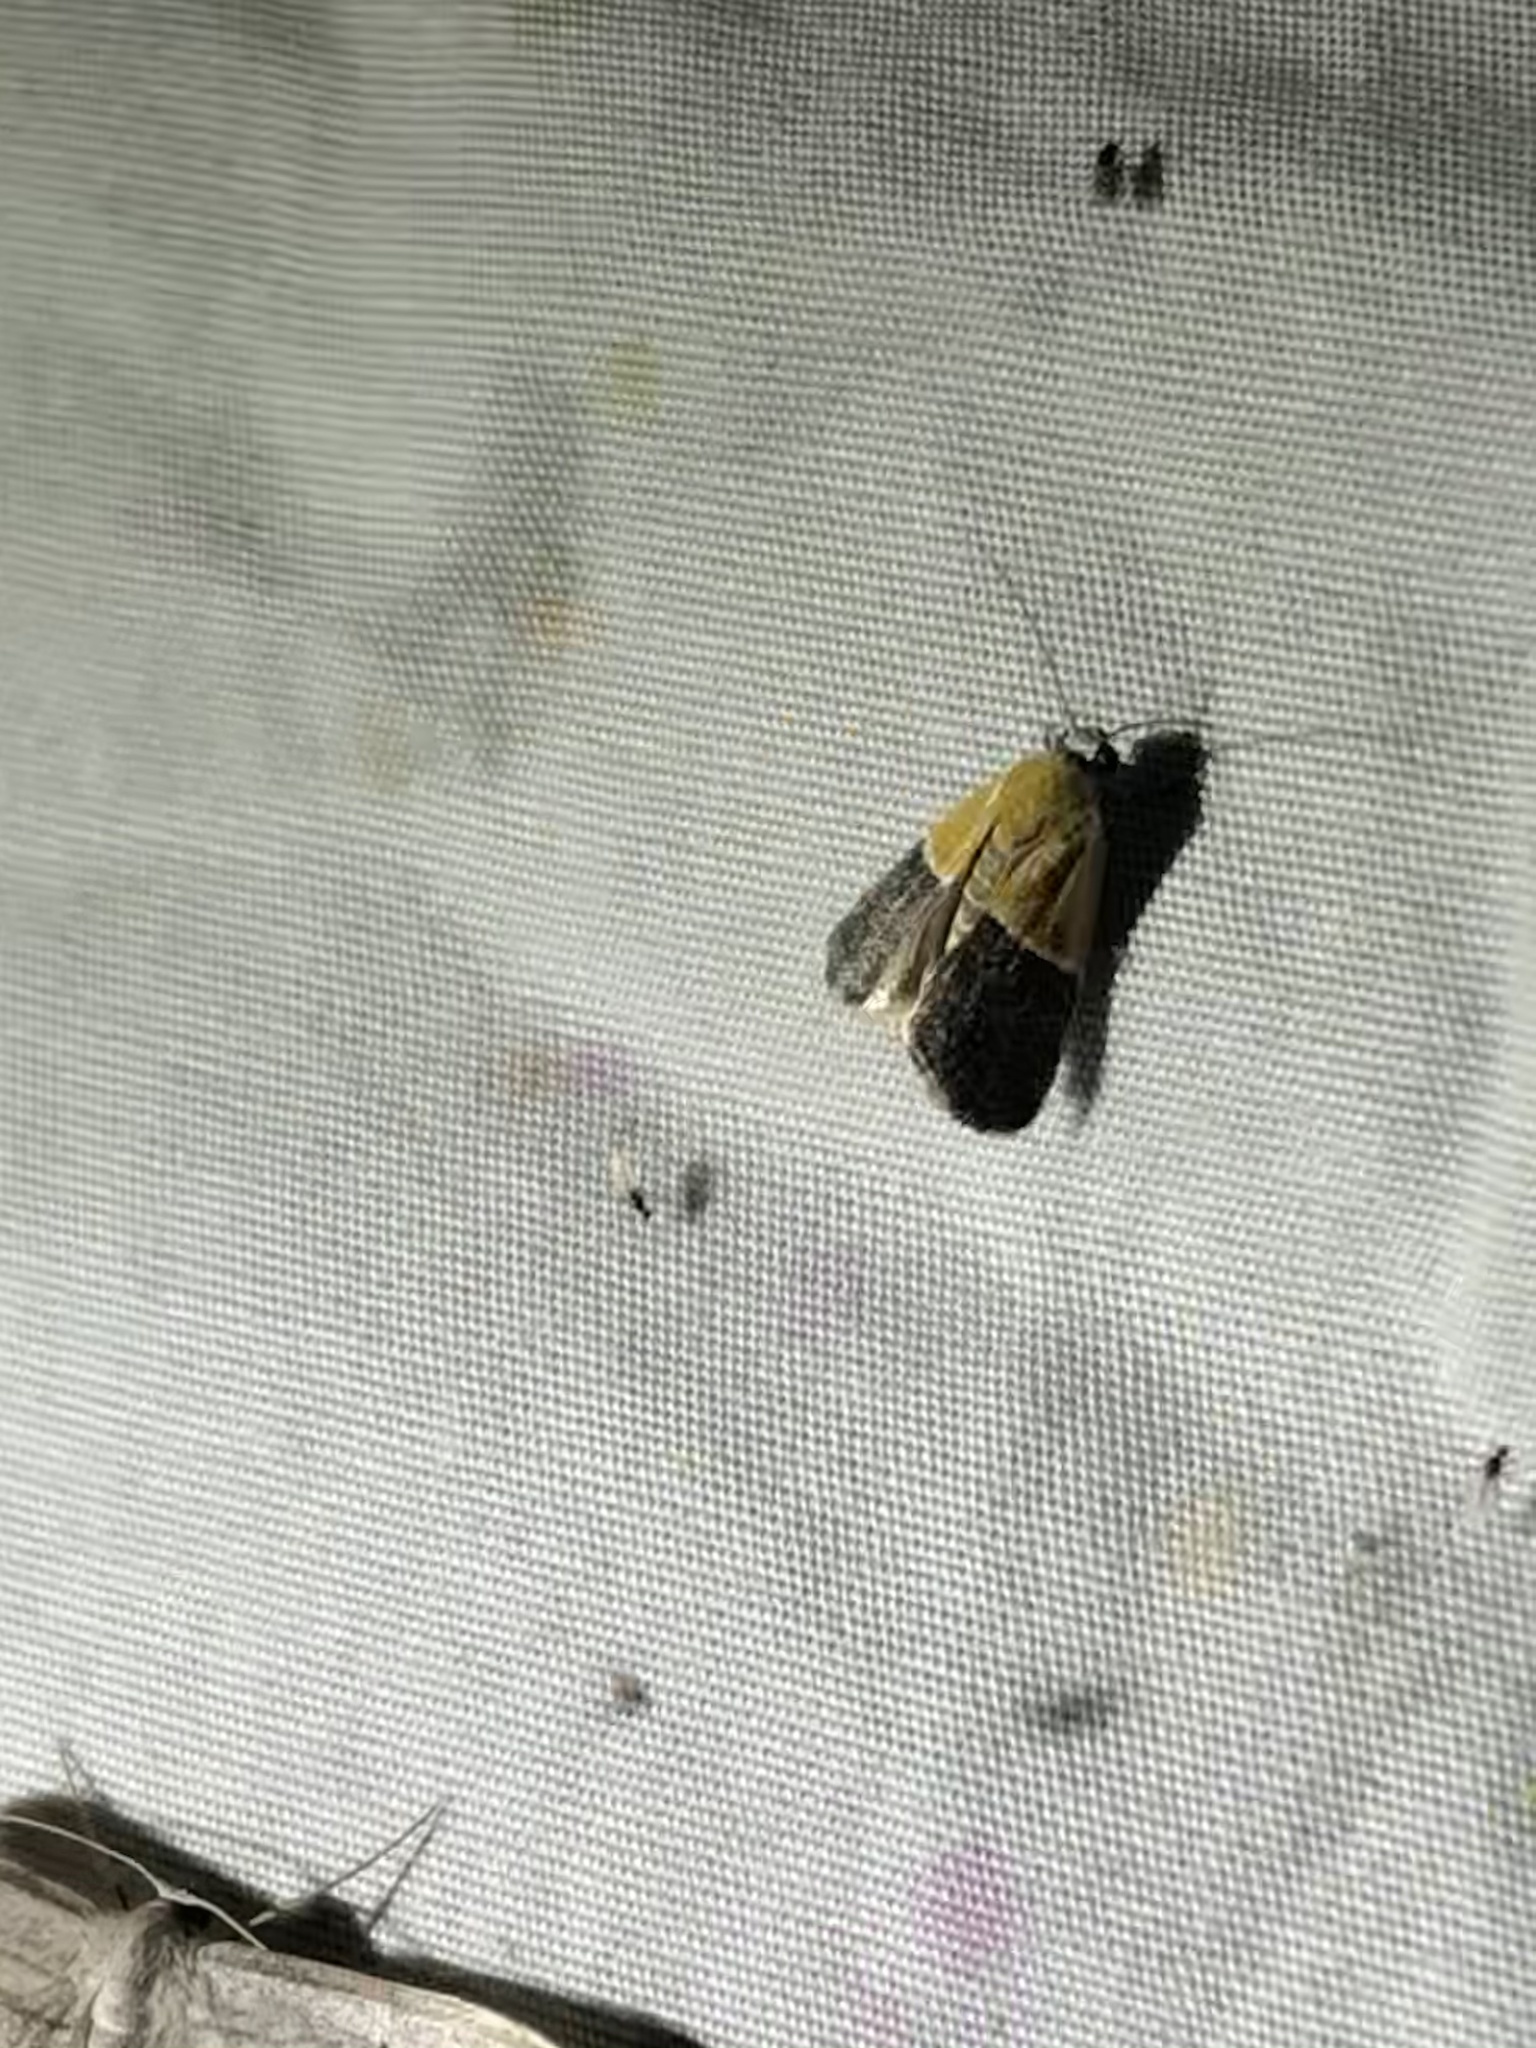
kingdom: Animalia
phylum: Arthropoda
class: Insecta
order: Lepidoptera
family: Noctuidae
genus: Acontia
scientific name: Acontia clausula
